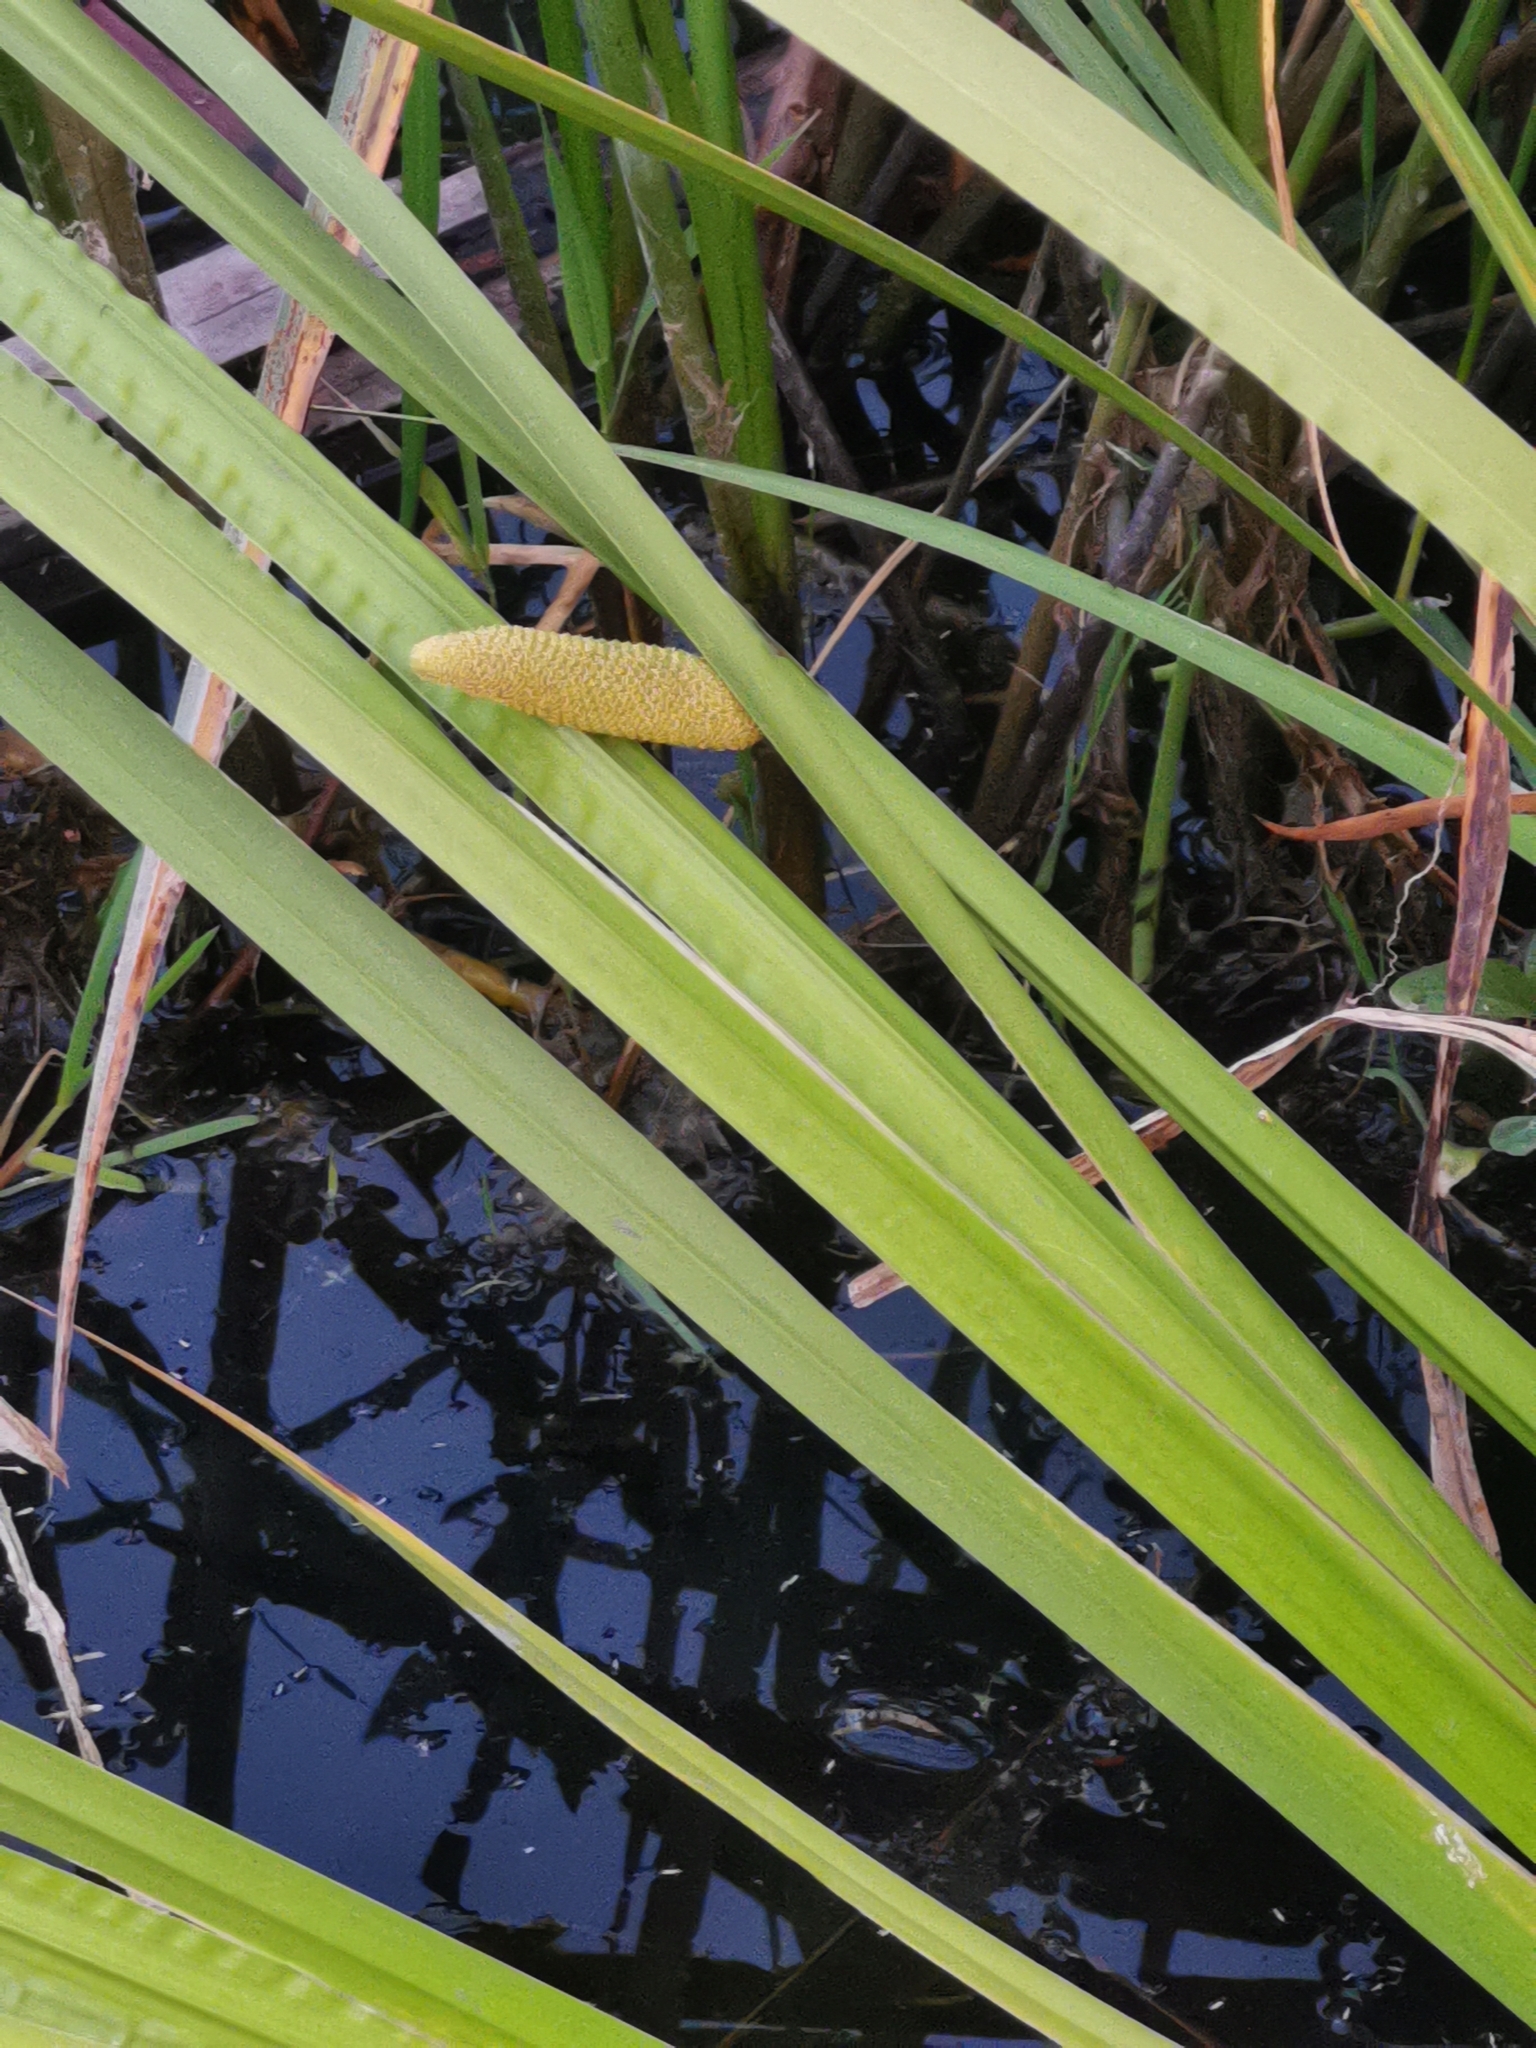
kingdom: Plantae
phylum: Tracheophyta
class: Liliopsida
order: Acorales
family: Acoraceae
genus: Acorus
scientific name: Acorus calamus
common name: Sweet-flag
